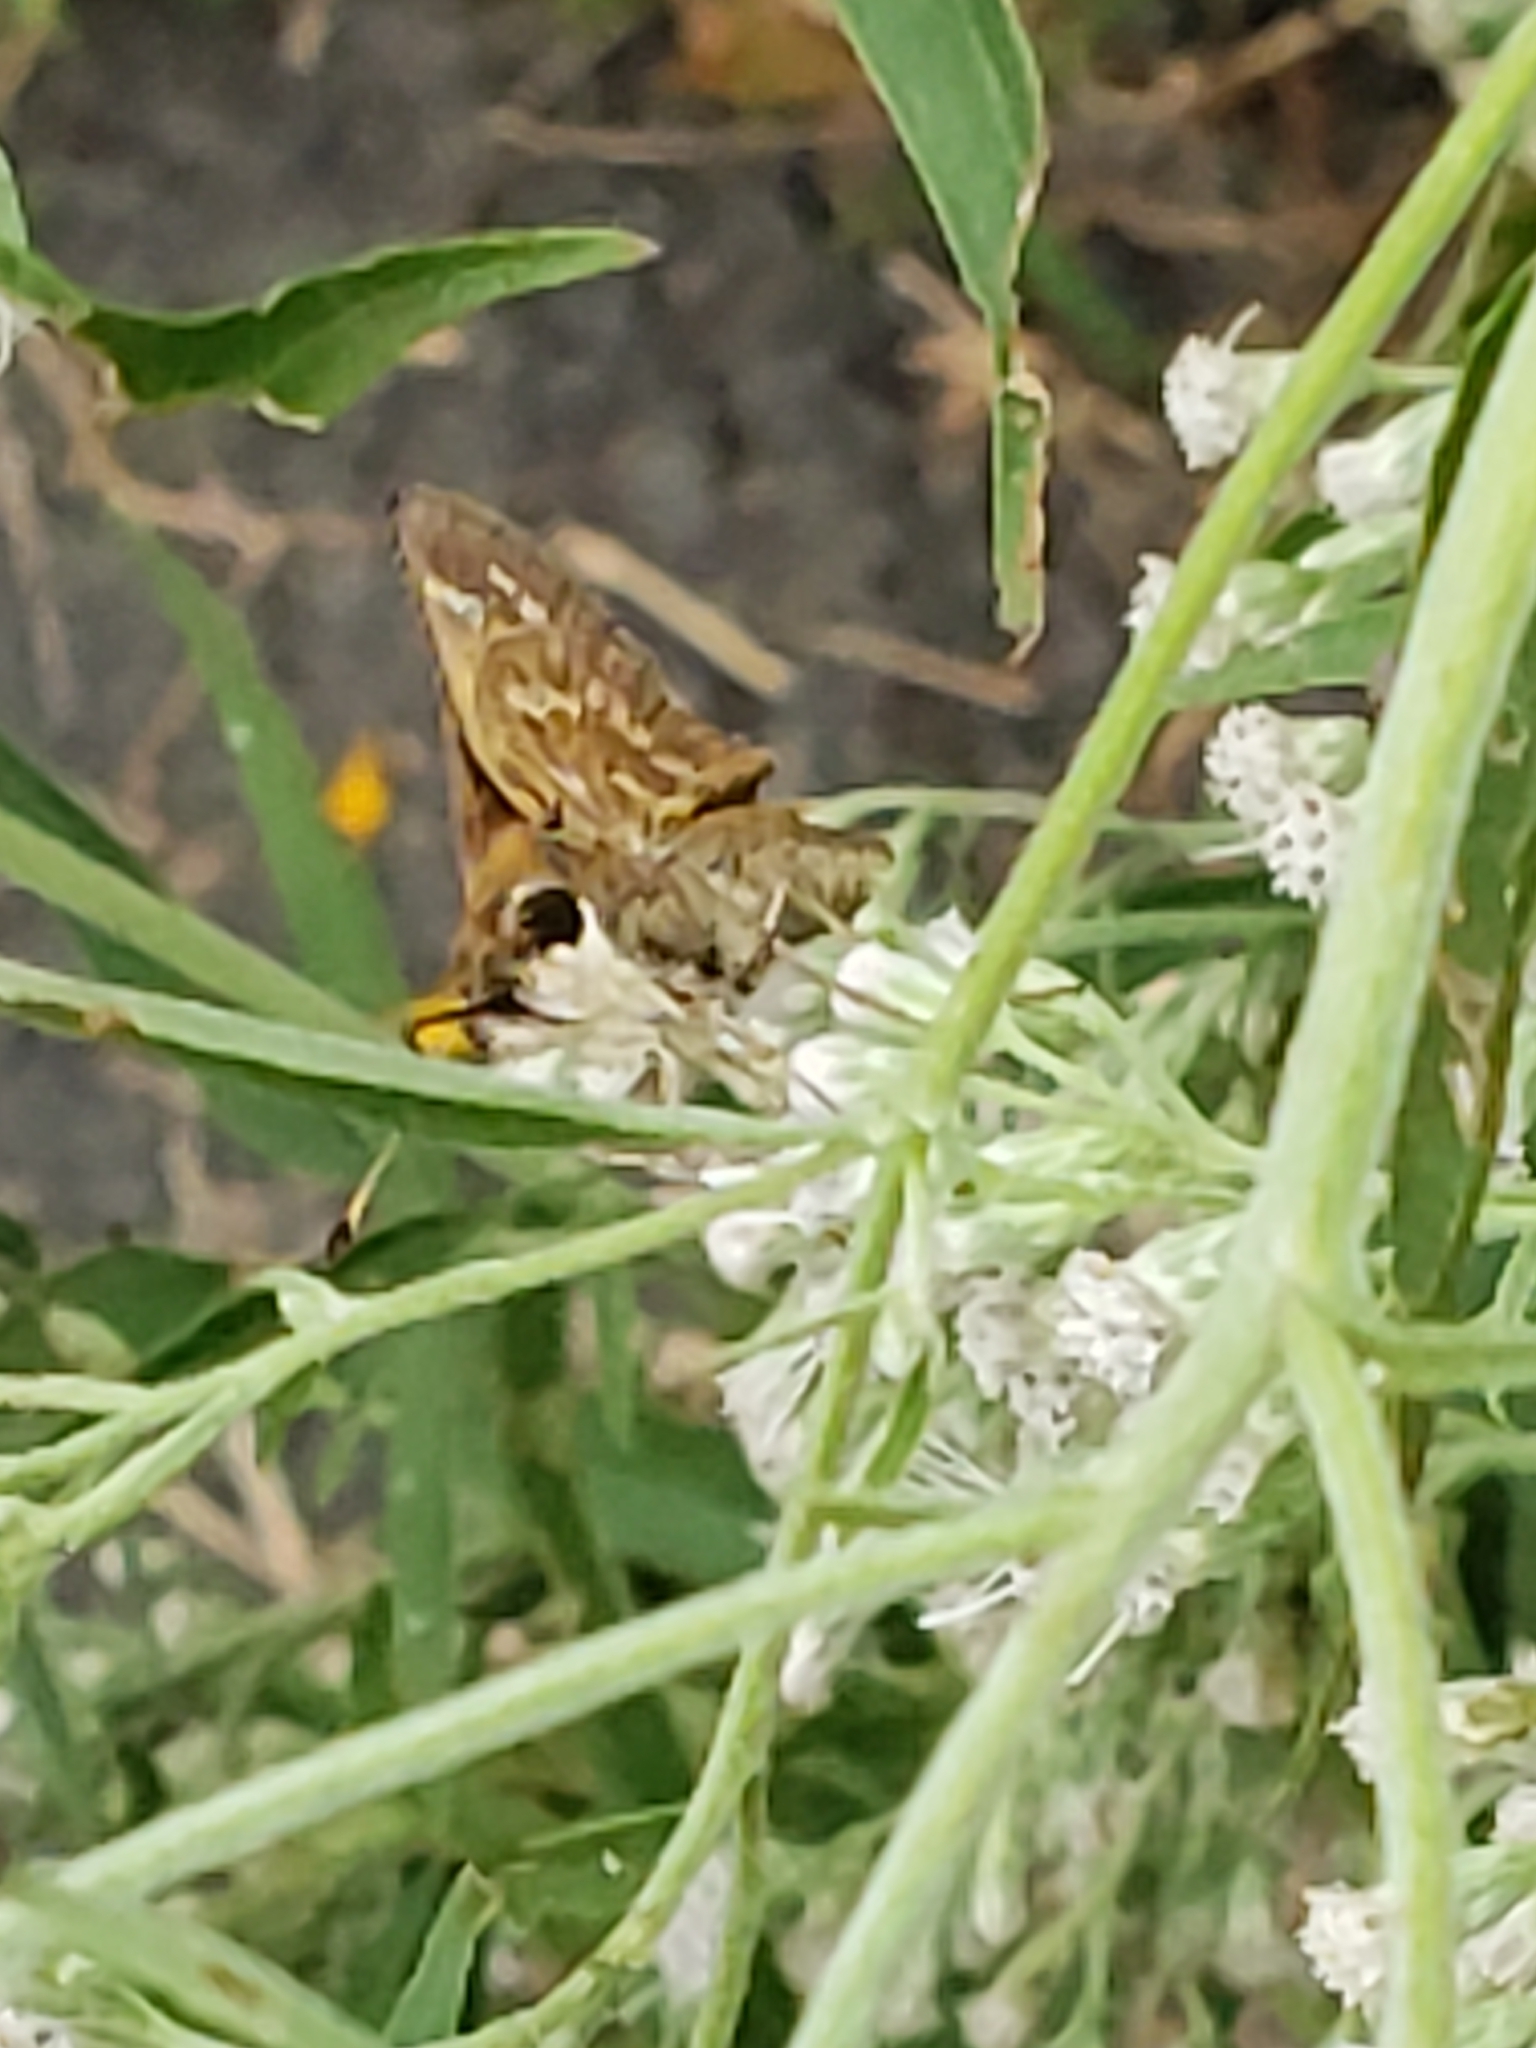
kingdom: Animalia
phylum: Arthropoda
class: Insecta
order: Lepidoptera
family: Hesperiidae
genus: Atalopedes
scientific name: Atalopedes
